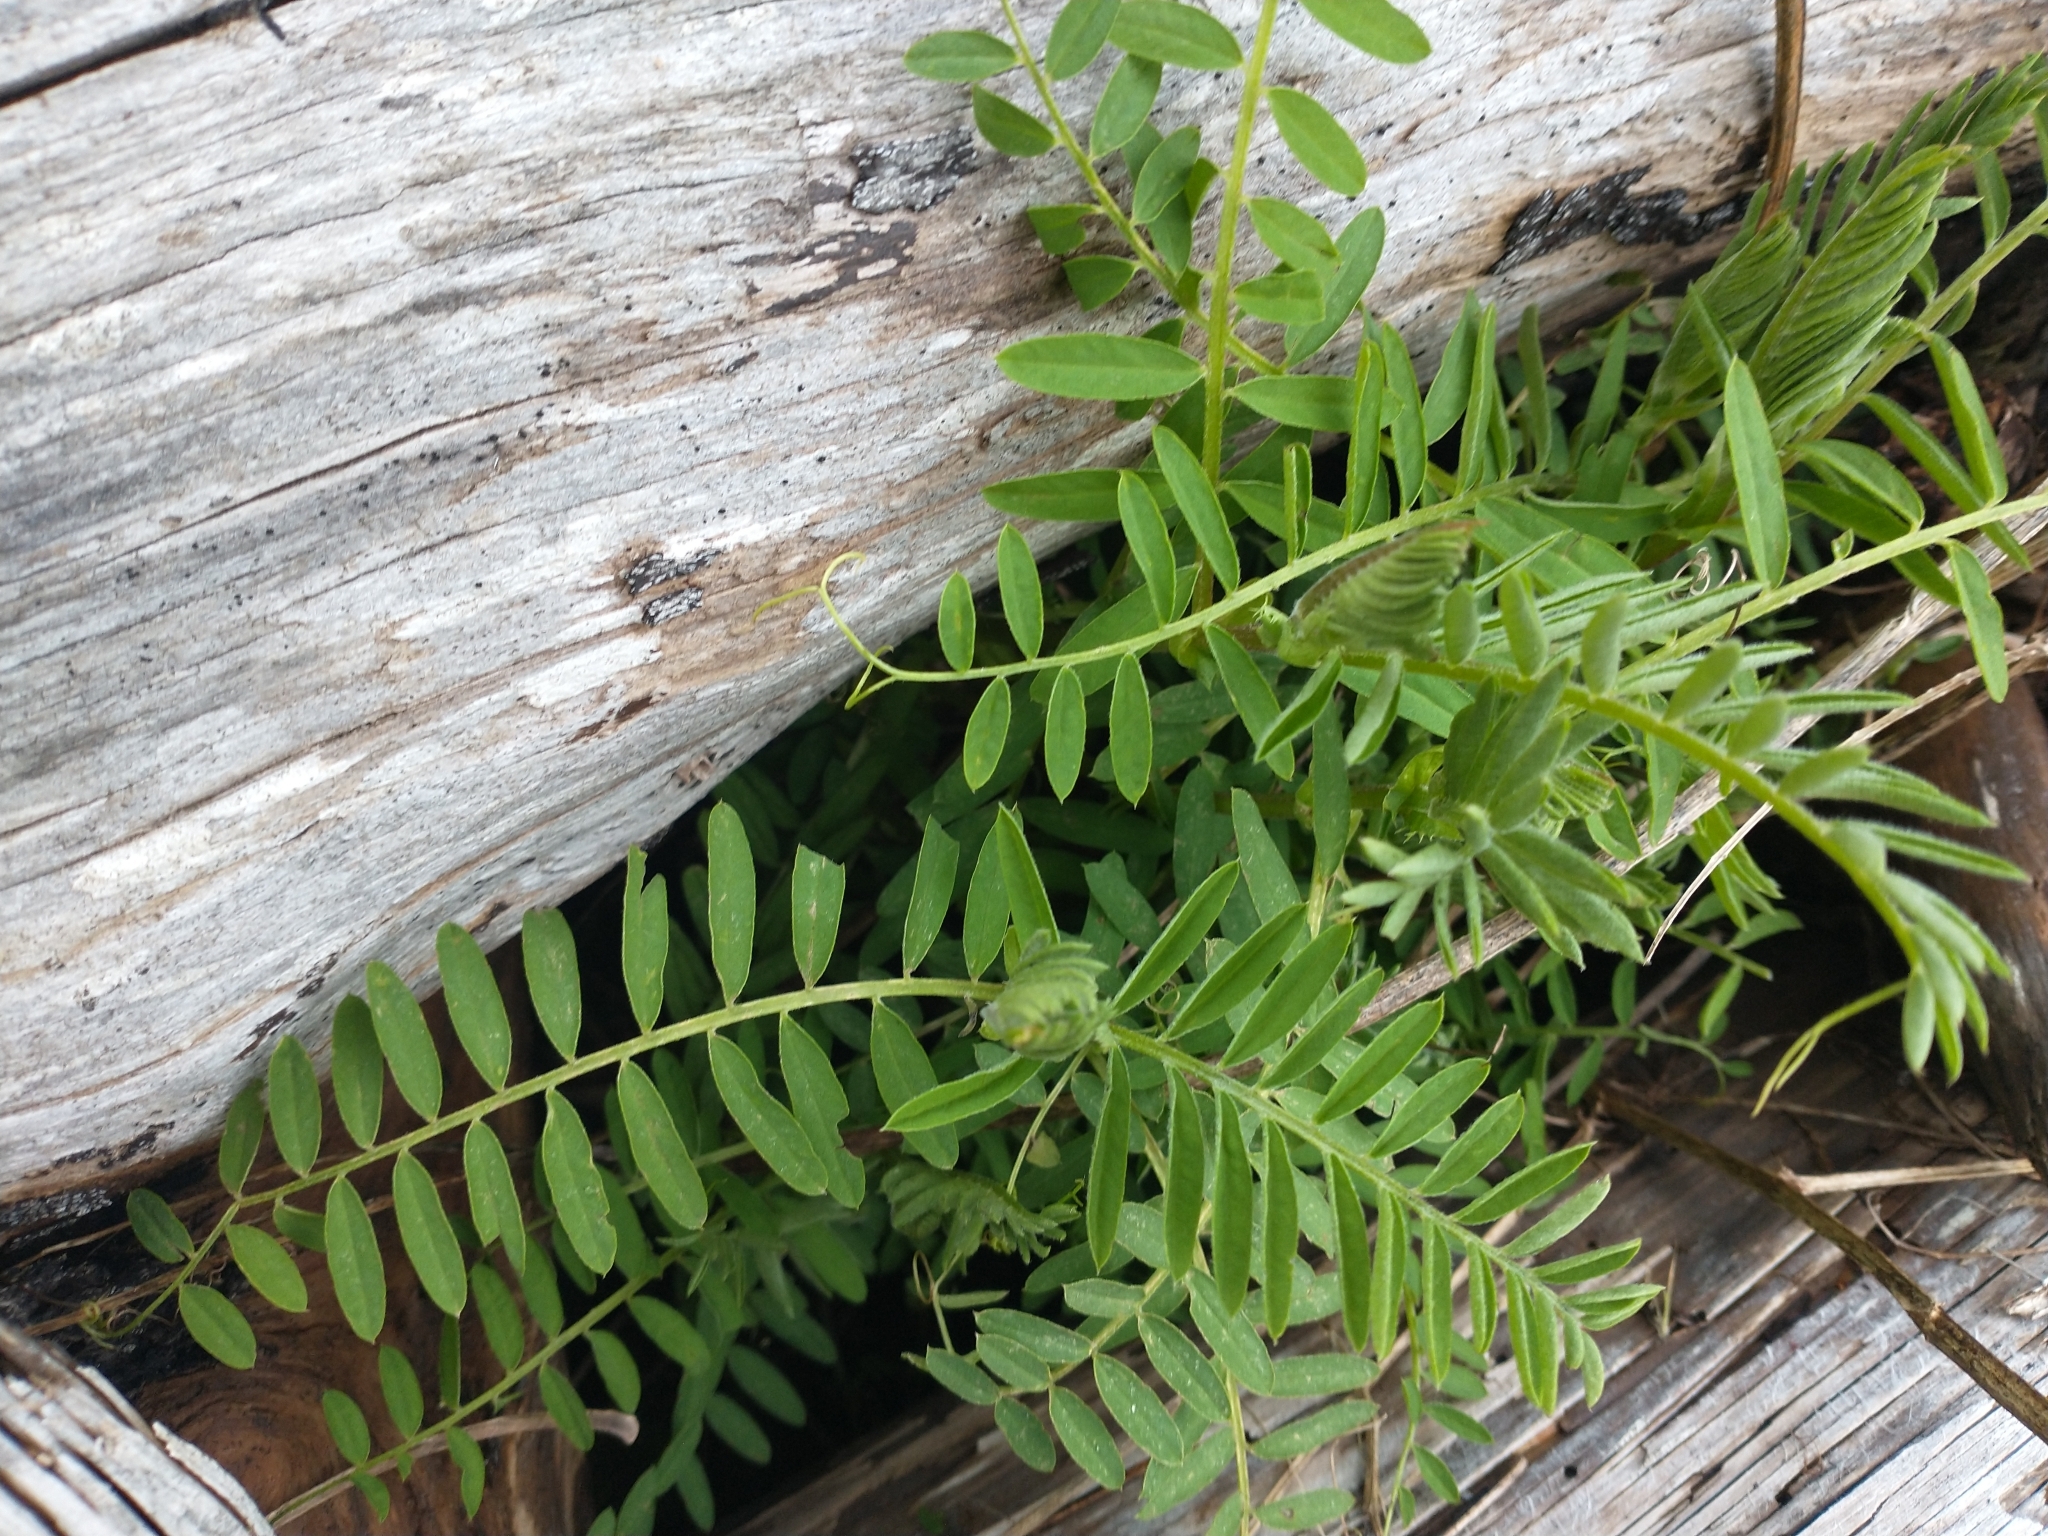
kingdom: Plantae
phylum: Tracheophyta
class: Magnoliopsida
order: Fabales
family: Fabaceae
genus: Vicia
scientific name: Vicia
